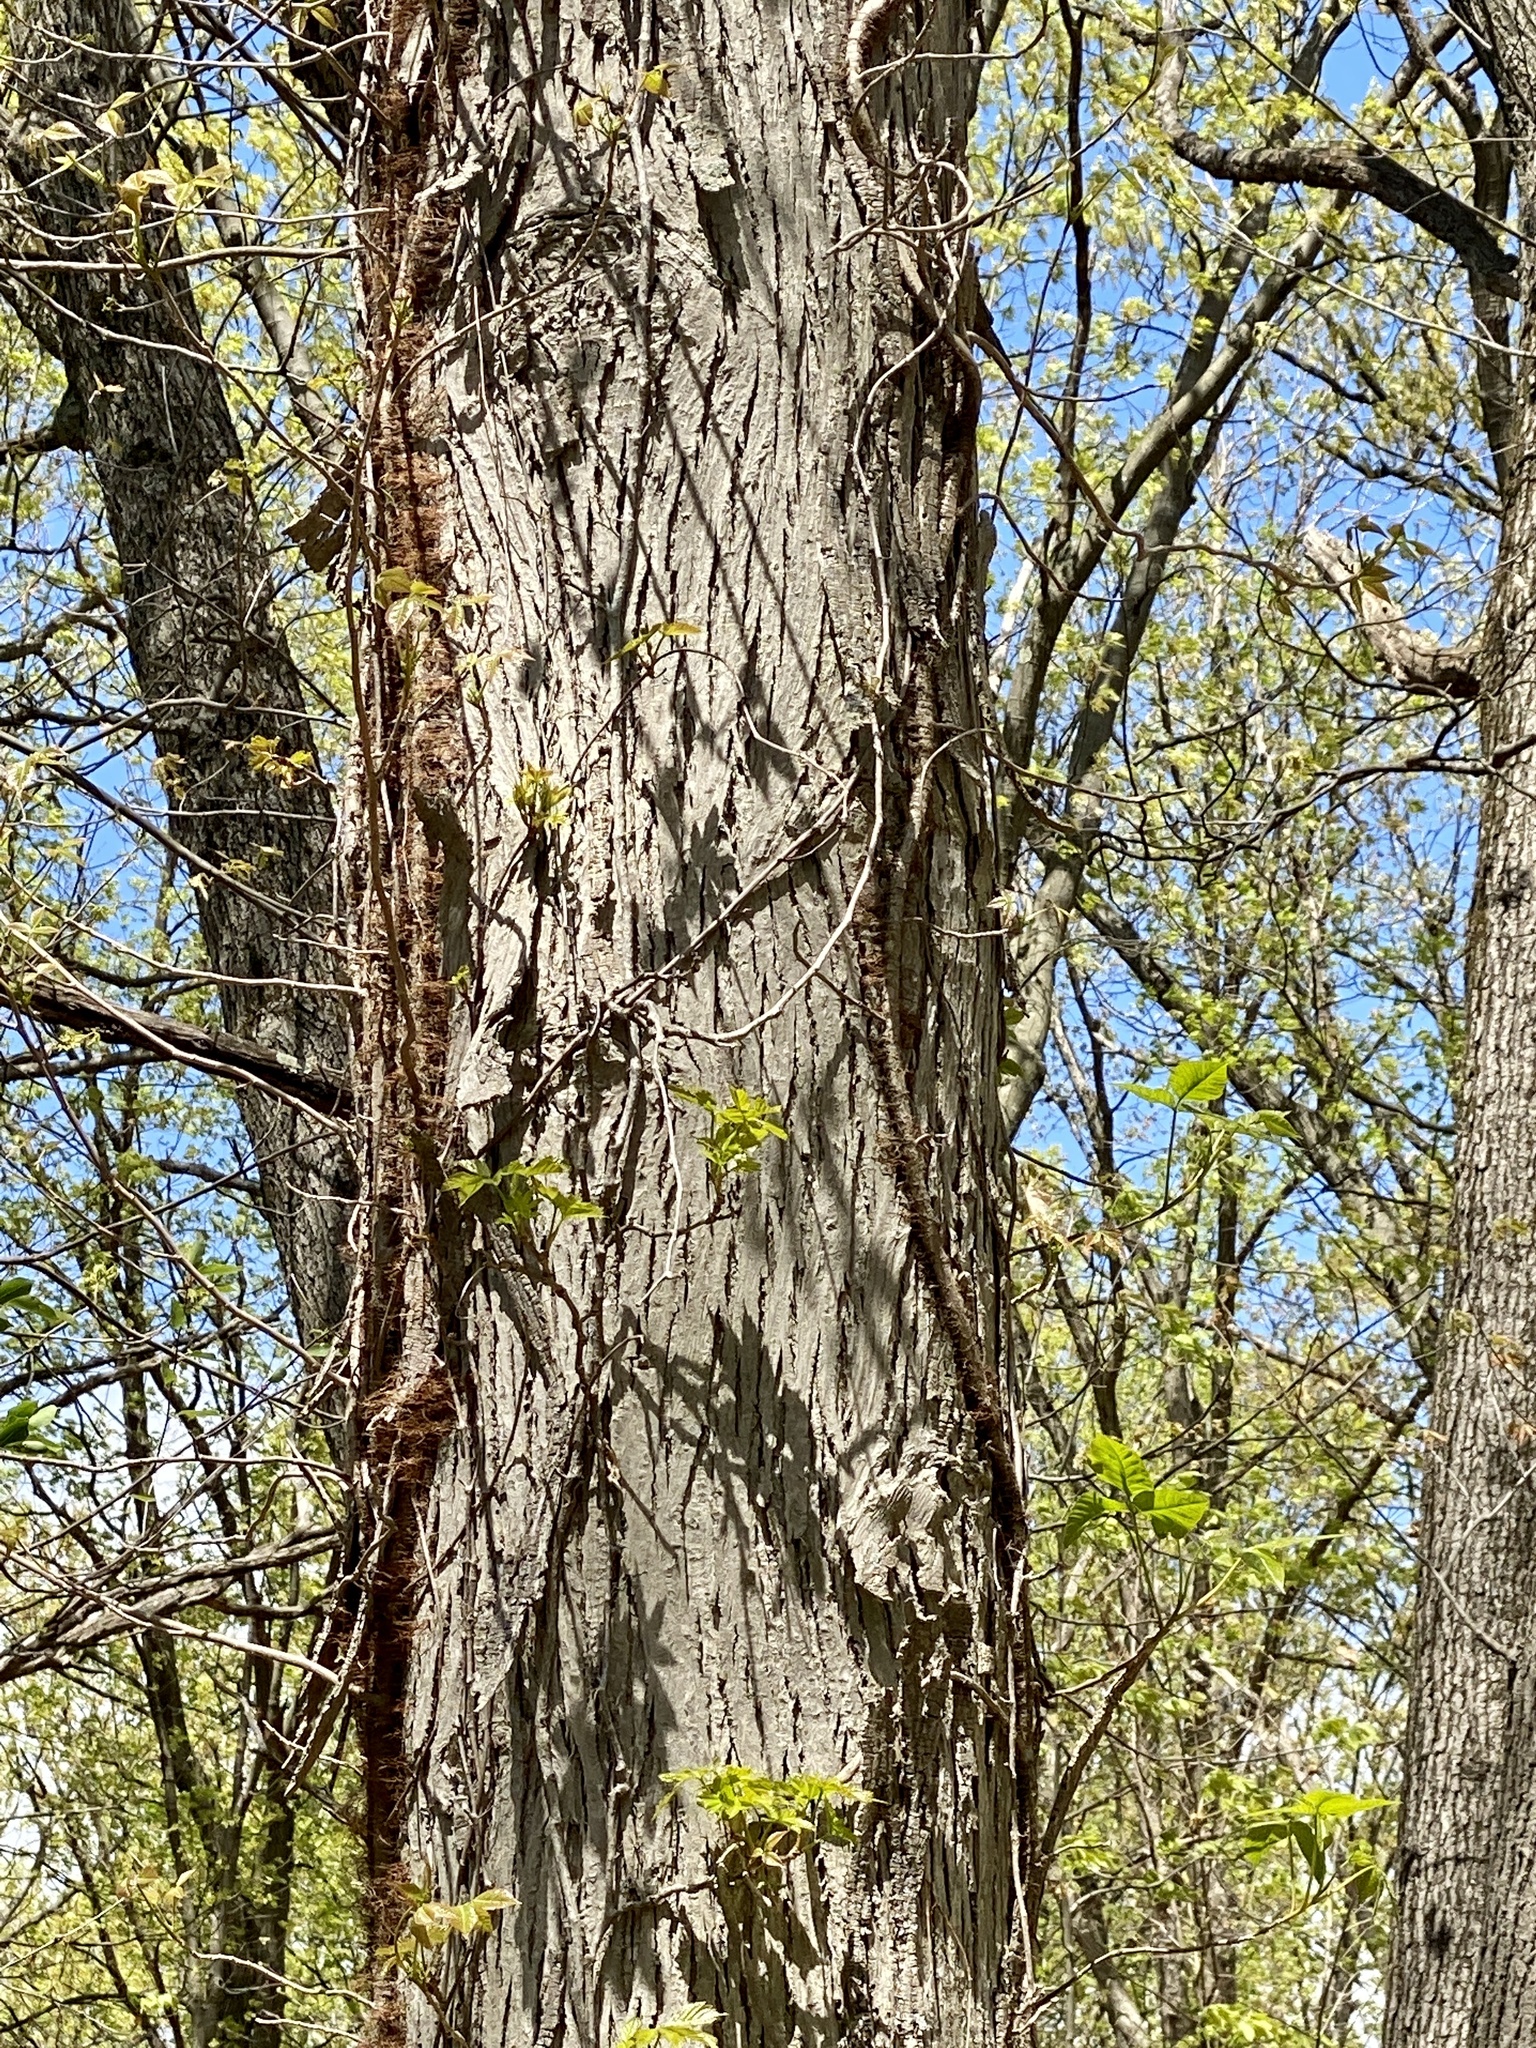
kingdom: Plantae
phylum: Tracheophyta
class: Magnoliopsida
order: Fagales
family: Juglandaceae
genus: Carya
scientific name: Carya ovata
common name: Shagbark hickory
